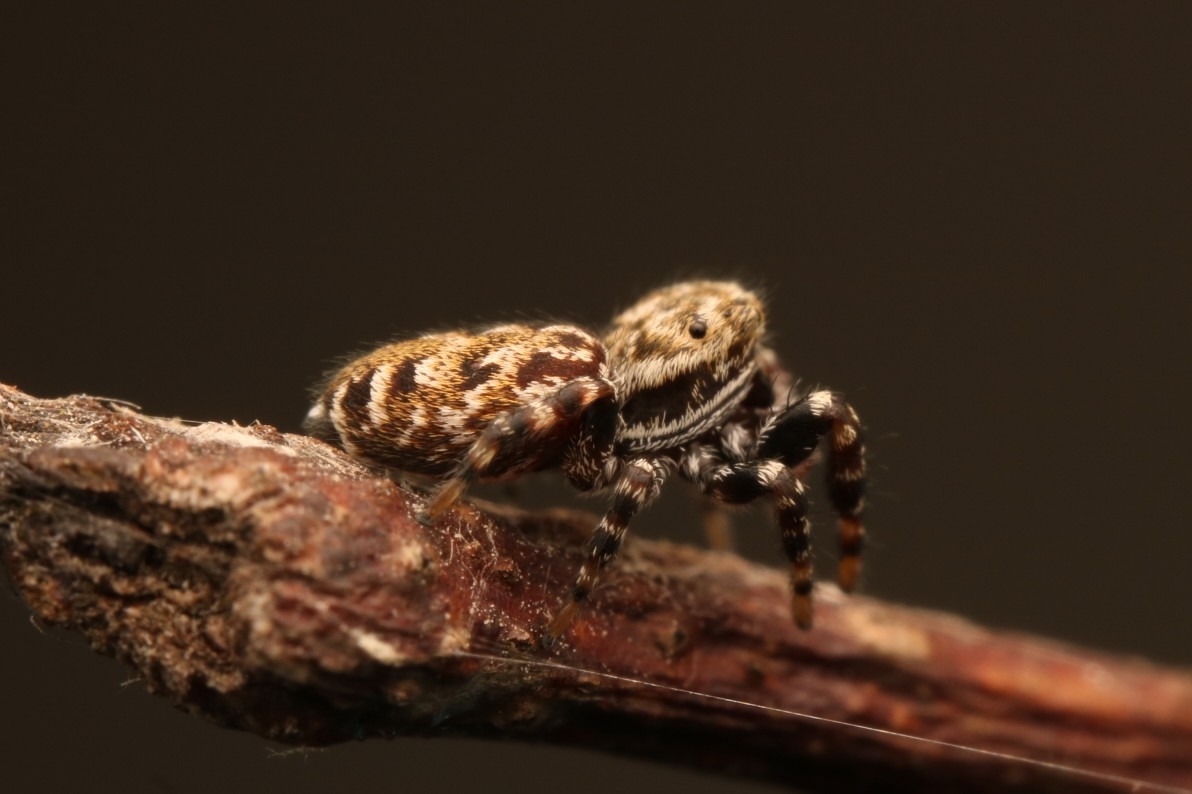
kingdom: Animalia
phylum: Arthropoda
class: Arachnida
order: Araneae
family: Salticidae
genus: Pelegrina
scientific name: Pelegrina galathea
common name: Jumping spiders
